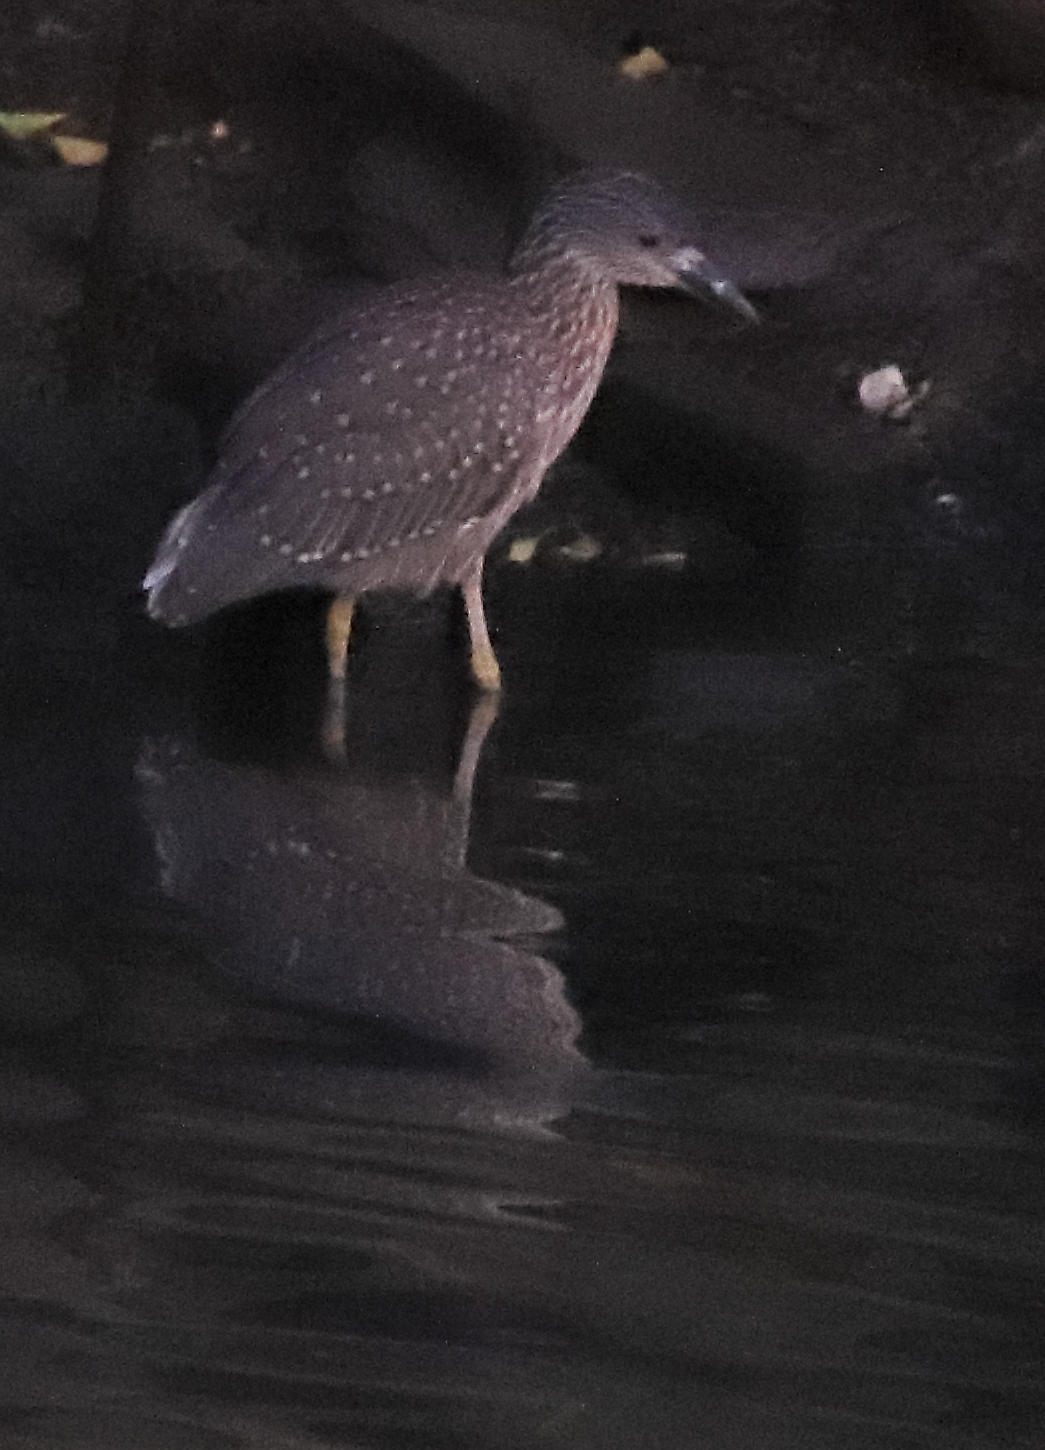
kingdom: Animalia
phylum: Chordata
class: Aves
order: Pelecaniformes
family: Ardeidae
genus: Nyctanassa
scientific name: Nyctanassa violacea
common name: Yellow-crowned night heron
